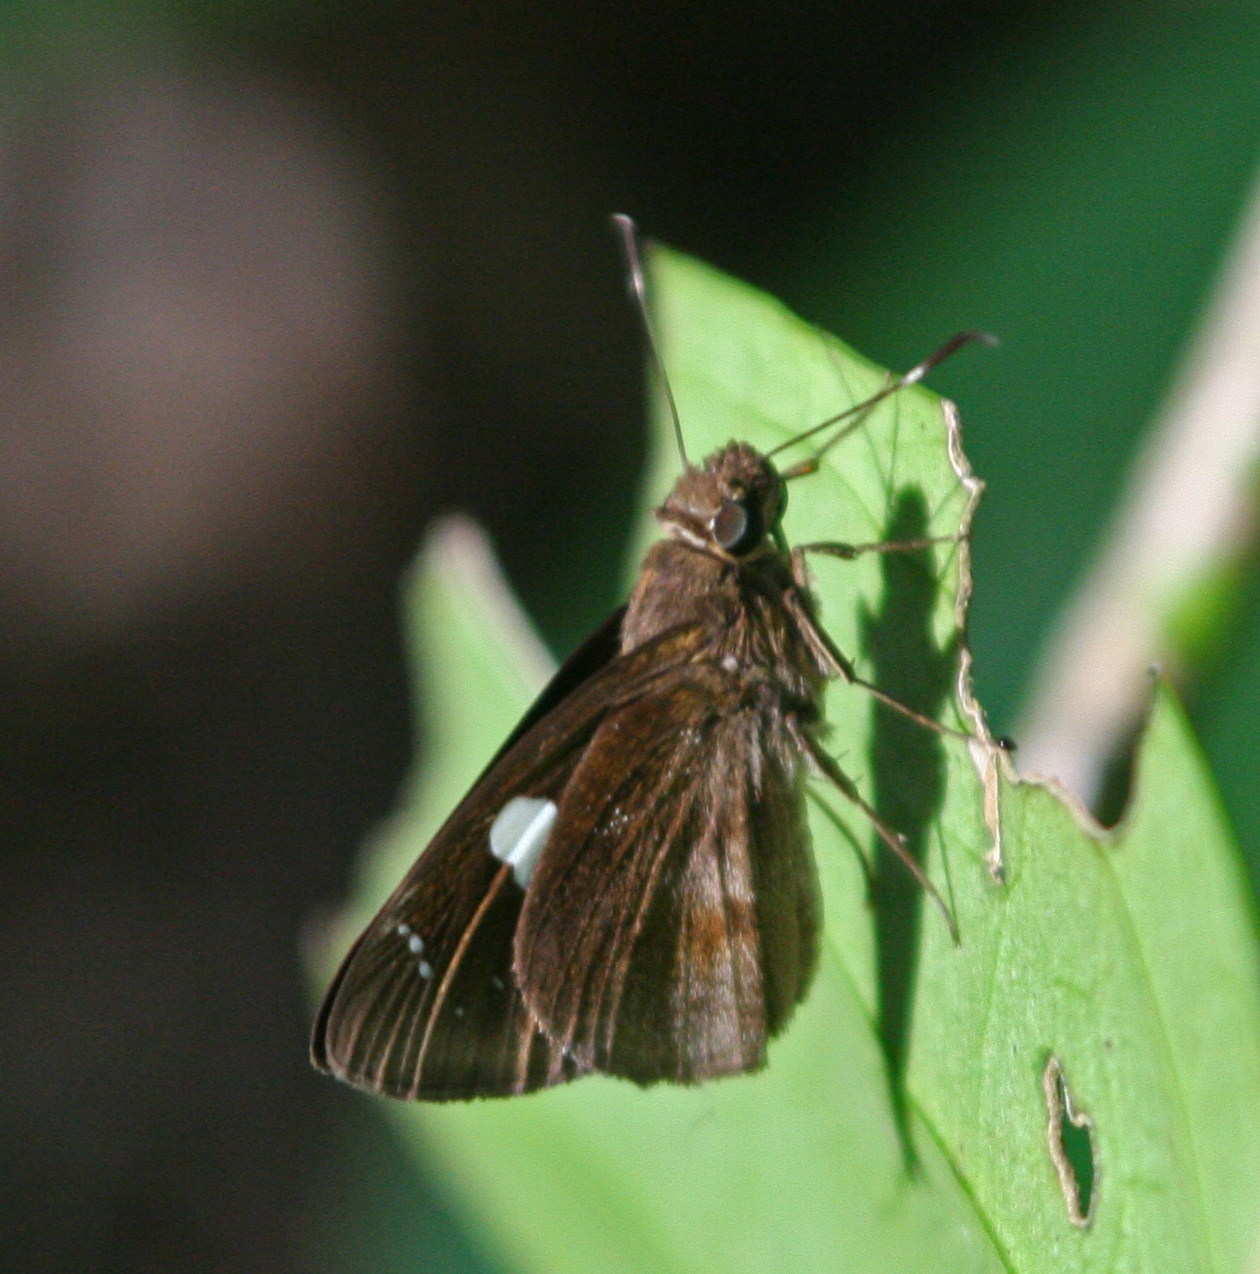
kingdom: Animalia
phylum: Arthropoda
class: Insecta
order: Lepidoptera
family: Hesperiidae
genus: Notocrypta
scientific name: Notocrypta curvifascia
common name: Restricted demon
